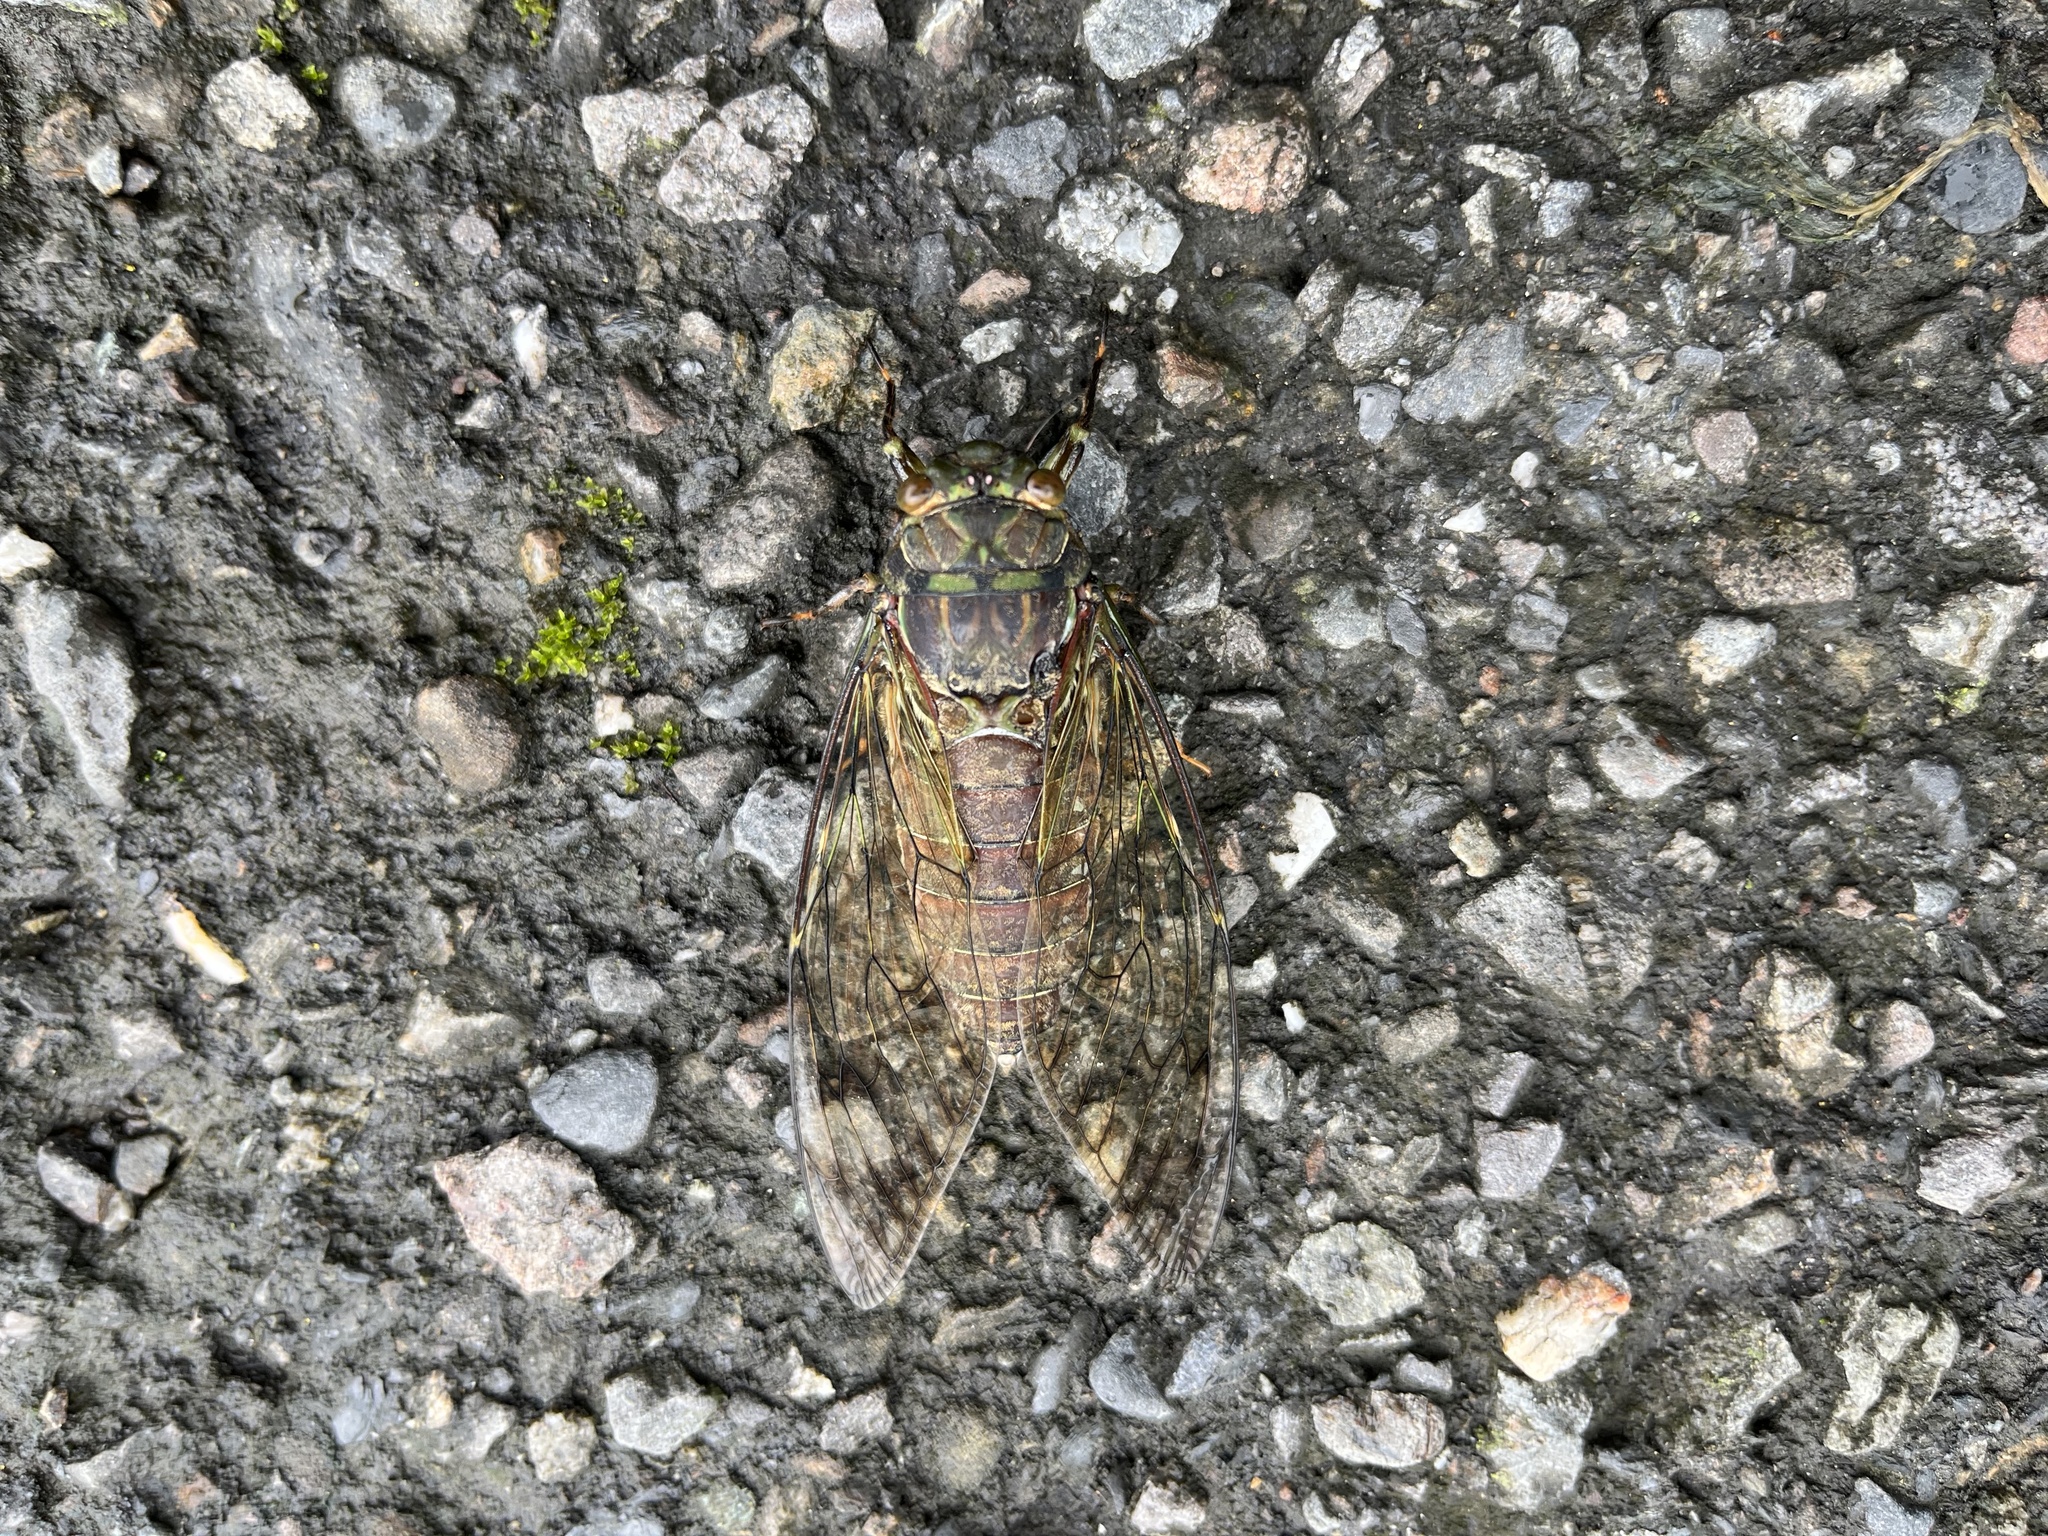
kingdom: Animalia
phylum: Arthropoda
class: Insecta
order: Hemiptera
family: Cicadidae
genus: Pomponia
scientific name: Pomponia yayeyamana
